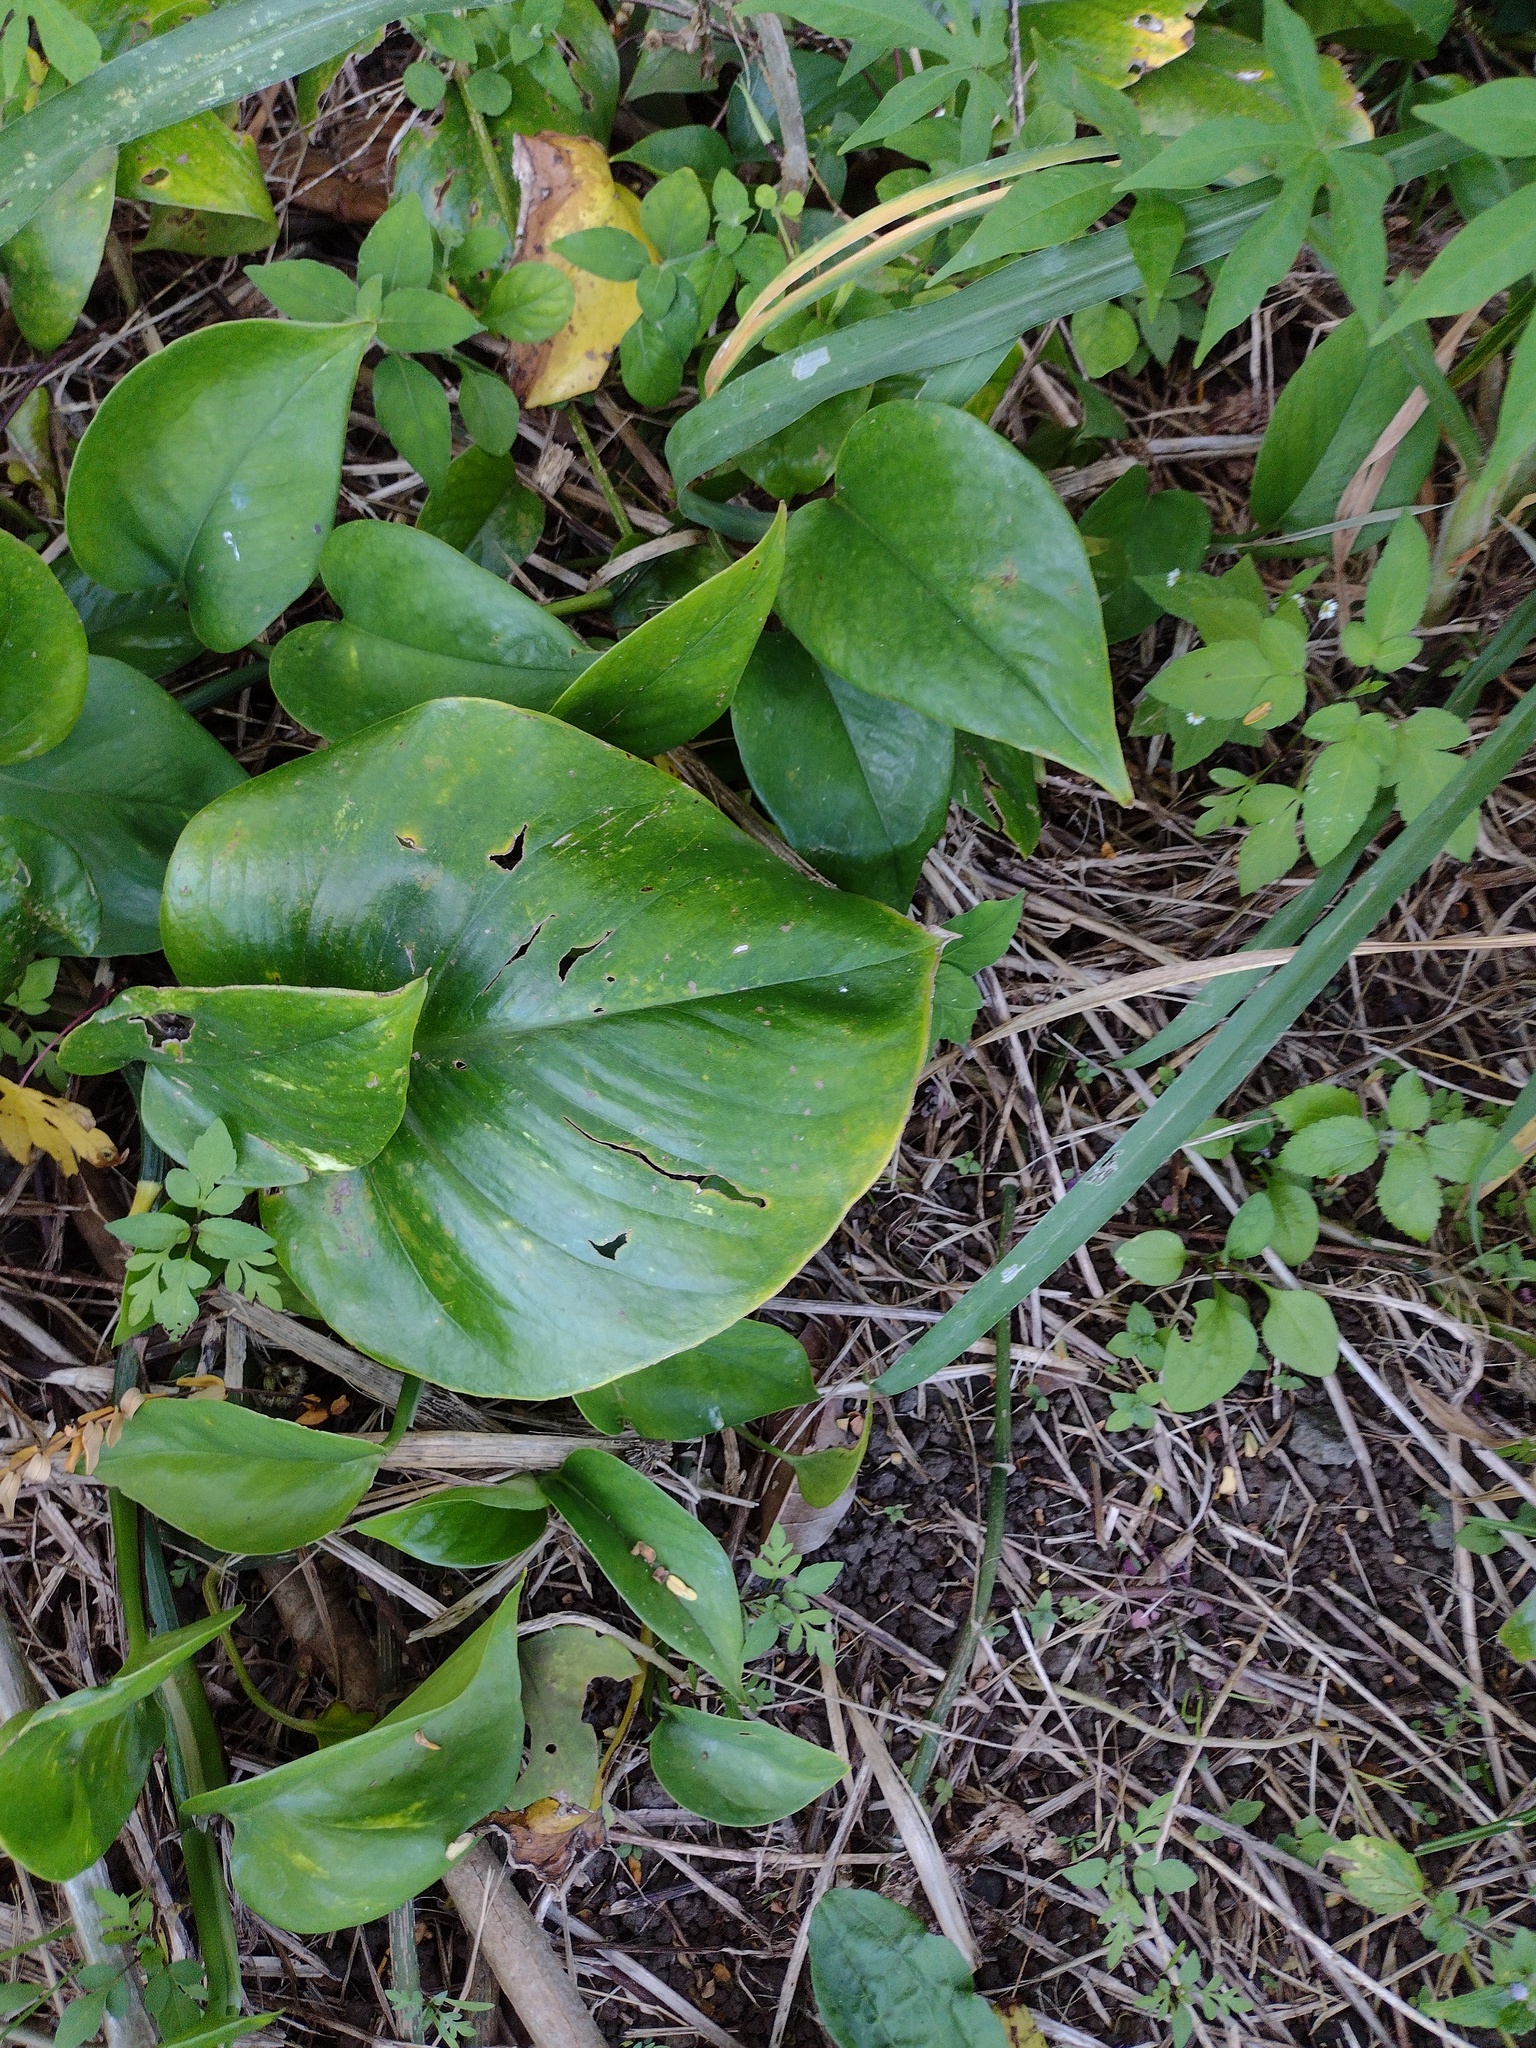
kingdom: Plantae
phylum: Tracheophyta
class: Liliopsida
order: Alismatales
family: Araceae
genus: Epipremnum
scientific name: Epipremnum aureum
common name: Golden hunter's-robe
